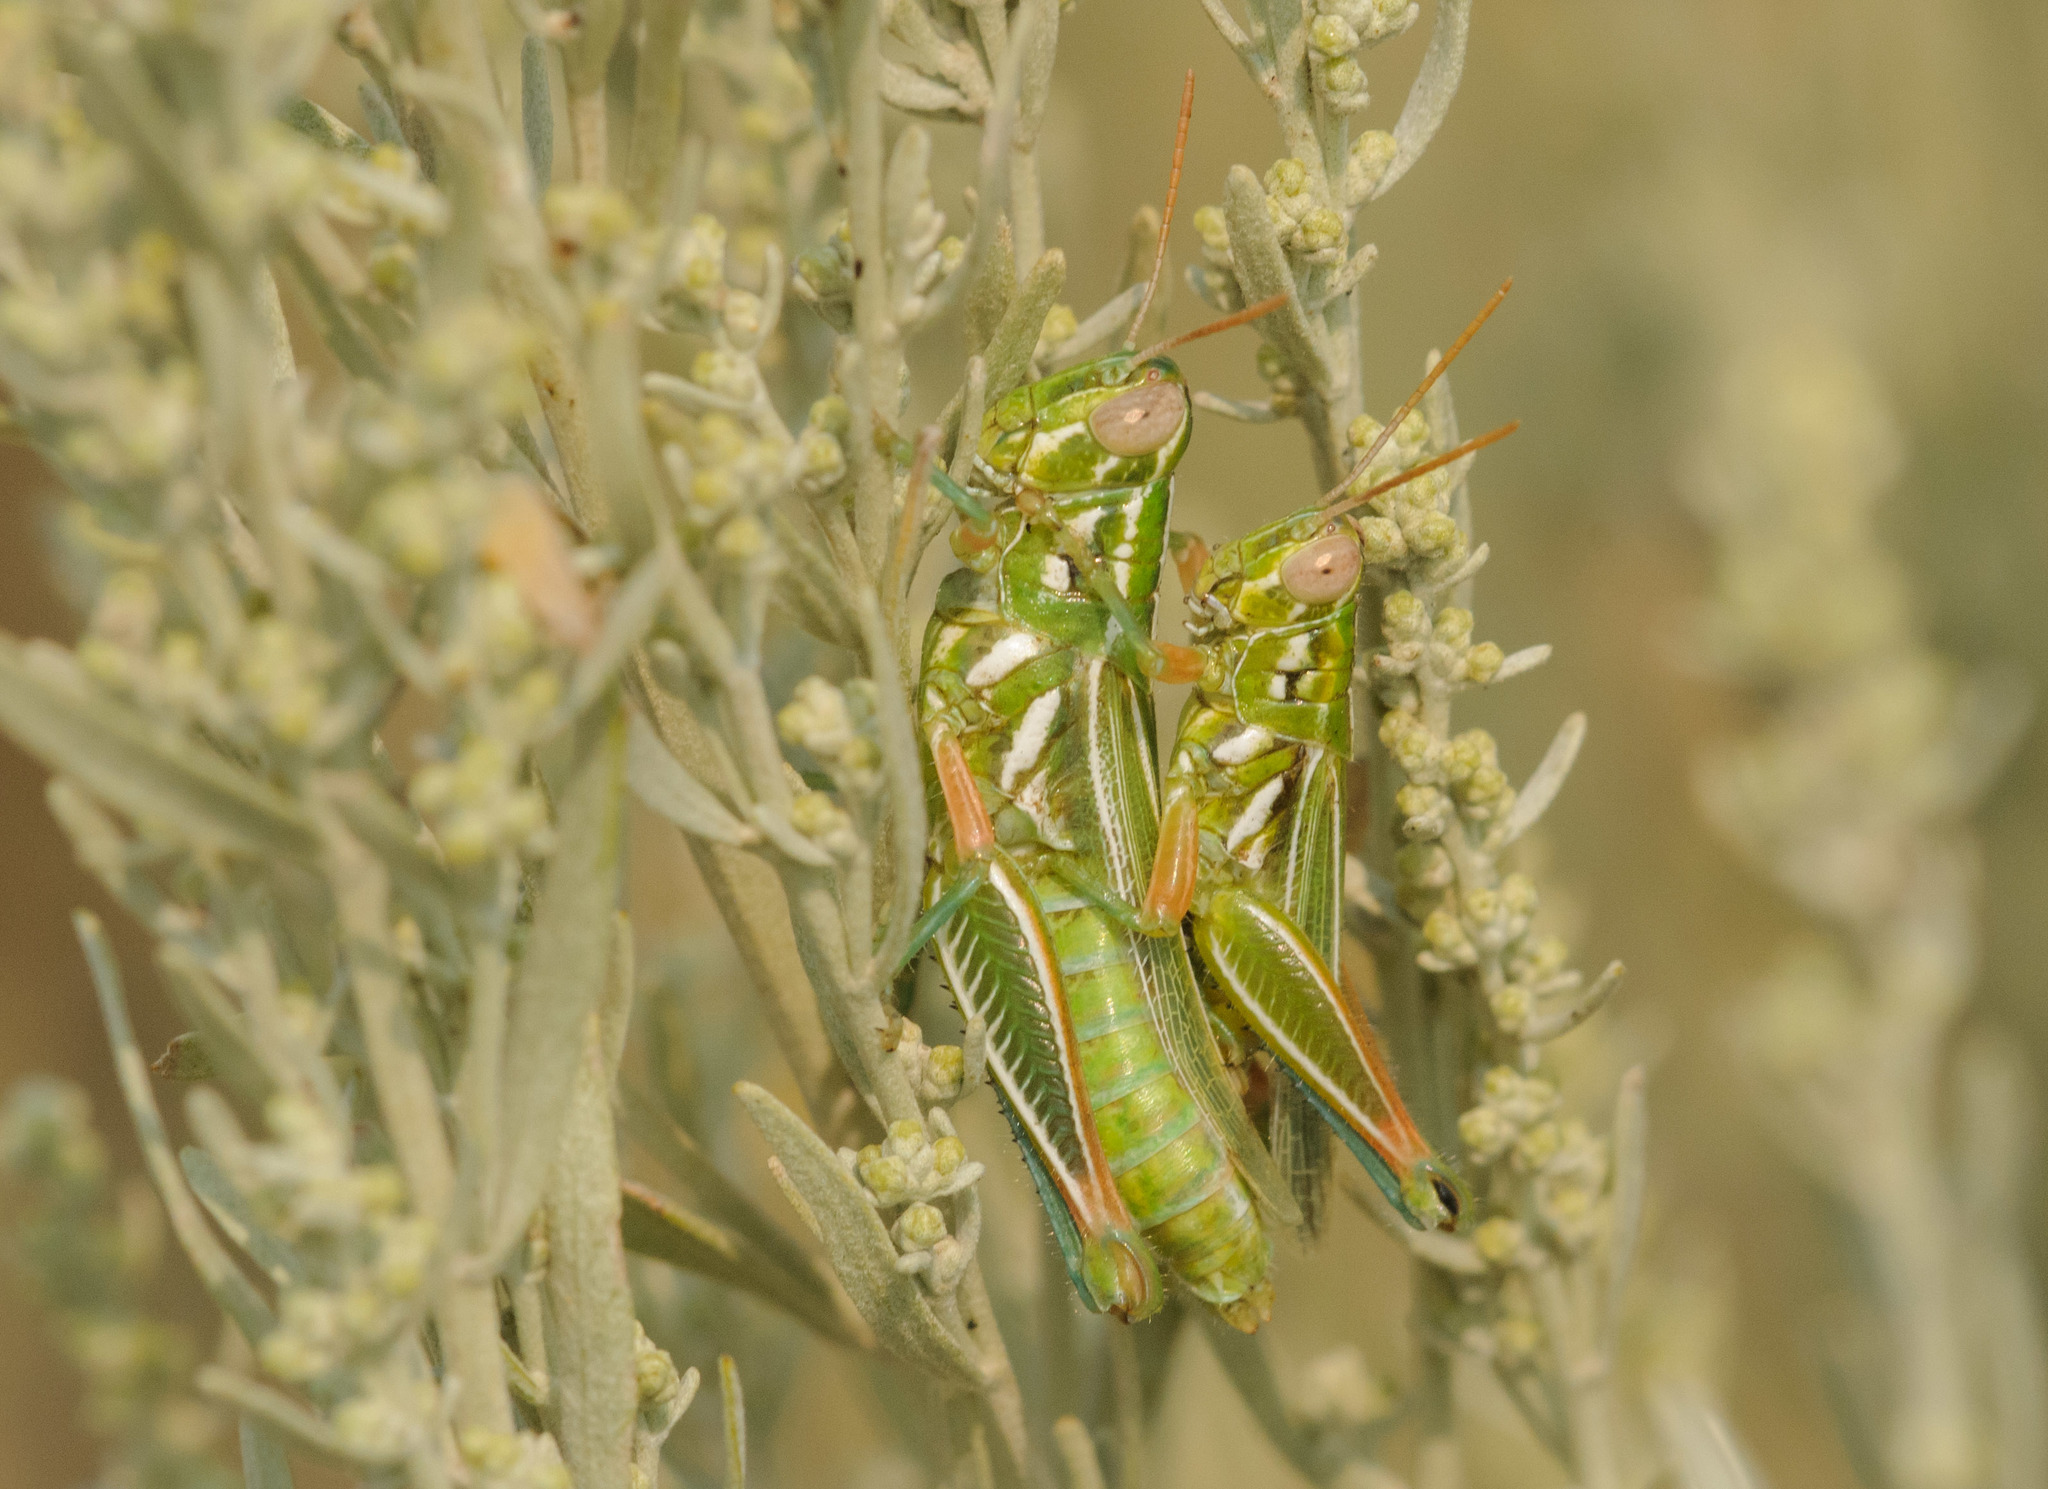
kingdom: Animalia
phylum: Arthropoda
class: Insecta
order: Orthoptera
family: Acrididae
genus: Hesperotettix
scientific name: Hesperotettix viridis
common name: Meadow purple-striped grasshopper
